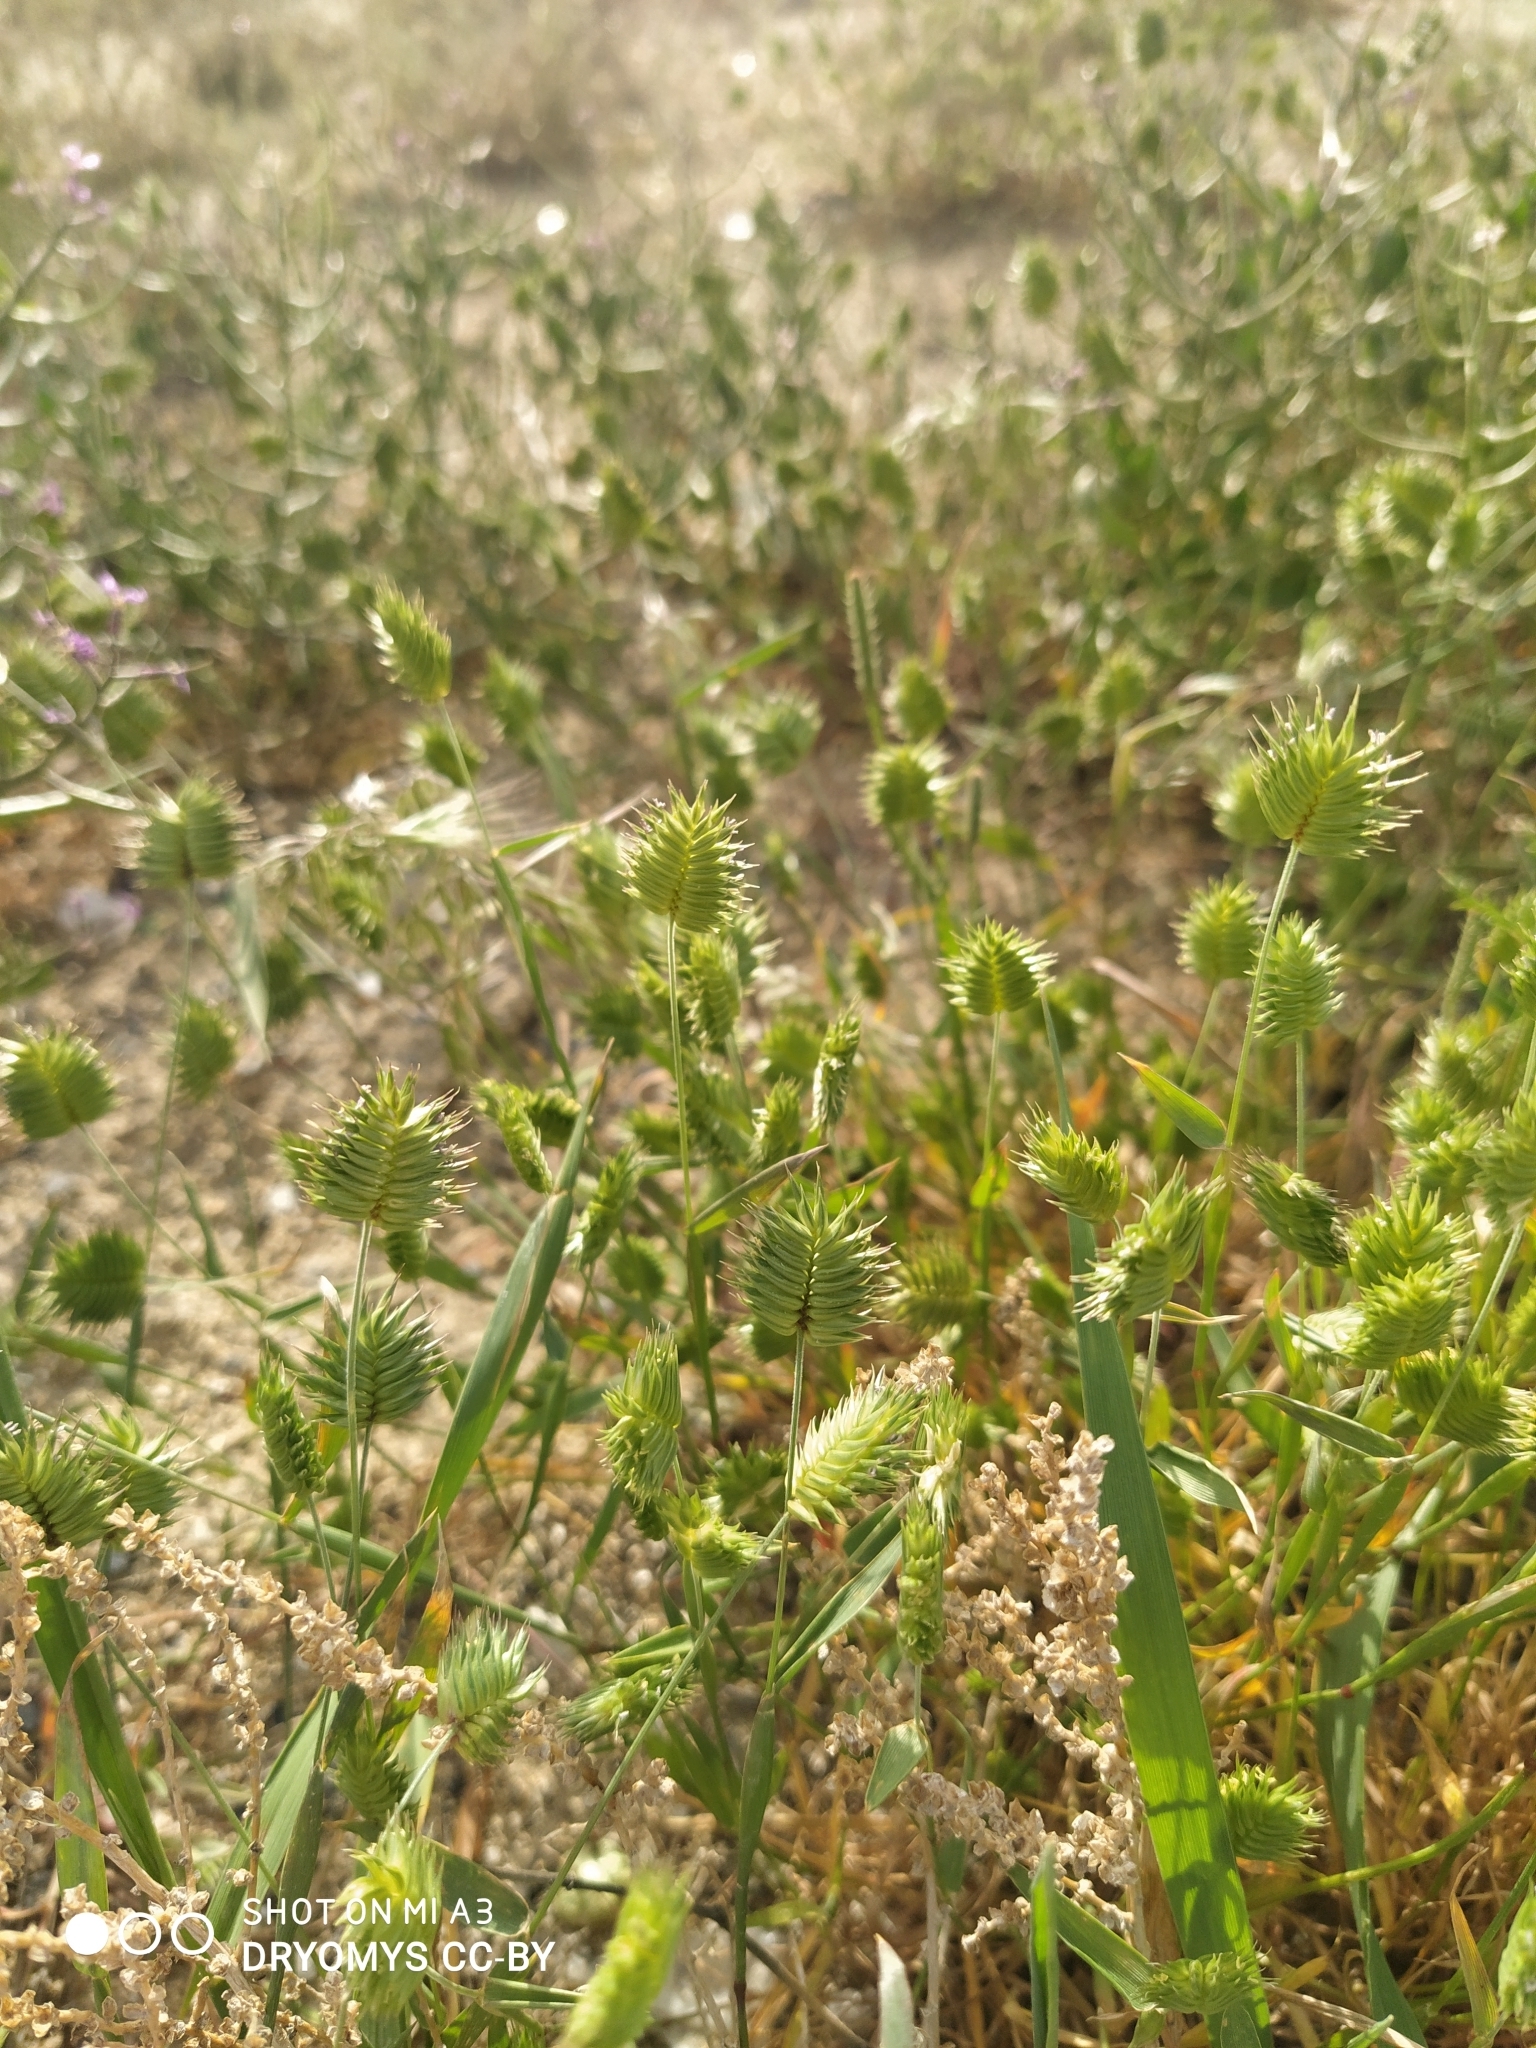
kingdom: Plantae
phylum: Tracheophyta
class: Liliopsida
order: Poales
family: Poaceae
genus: Eremopyrum
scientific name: Eremopyrum triticeum
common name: Annual wheatgrass
